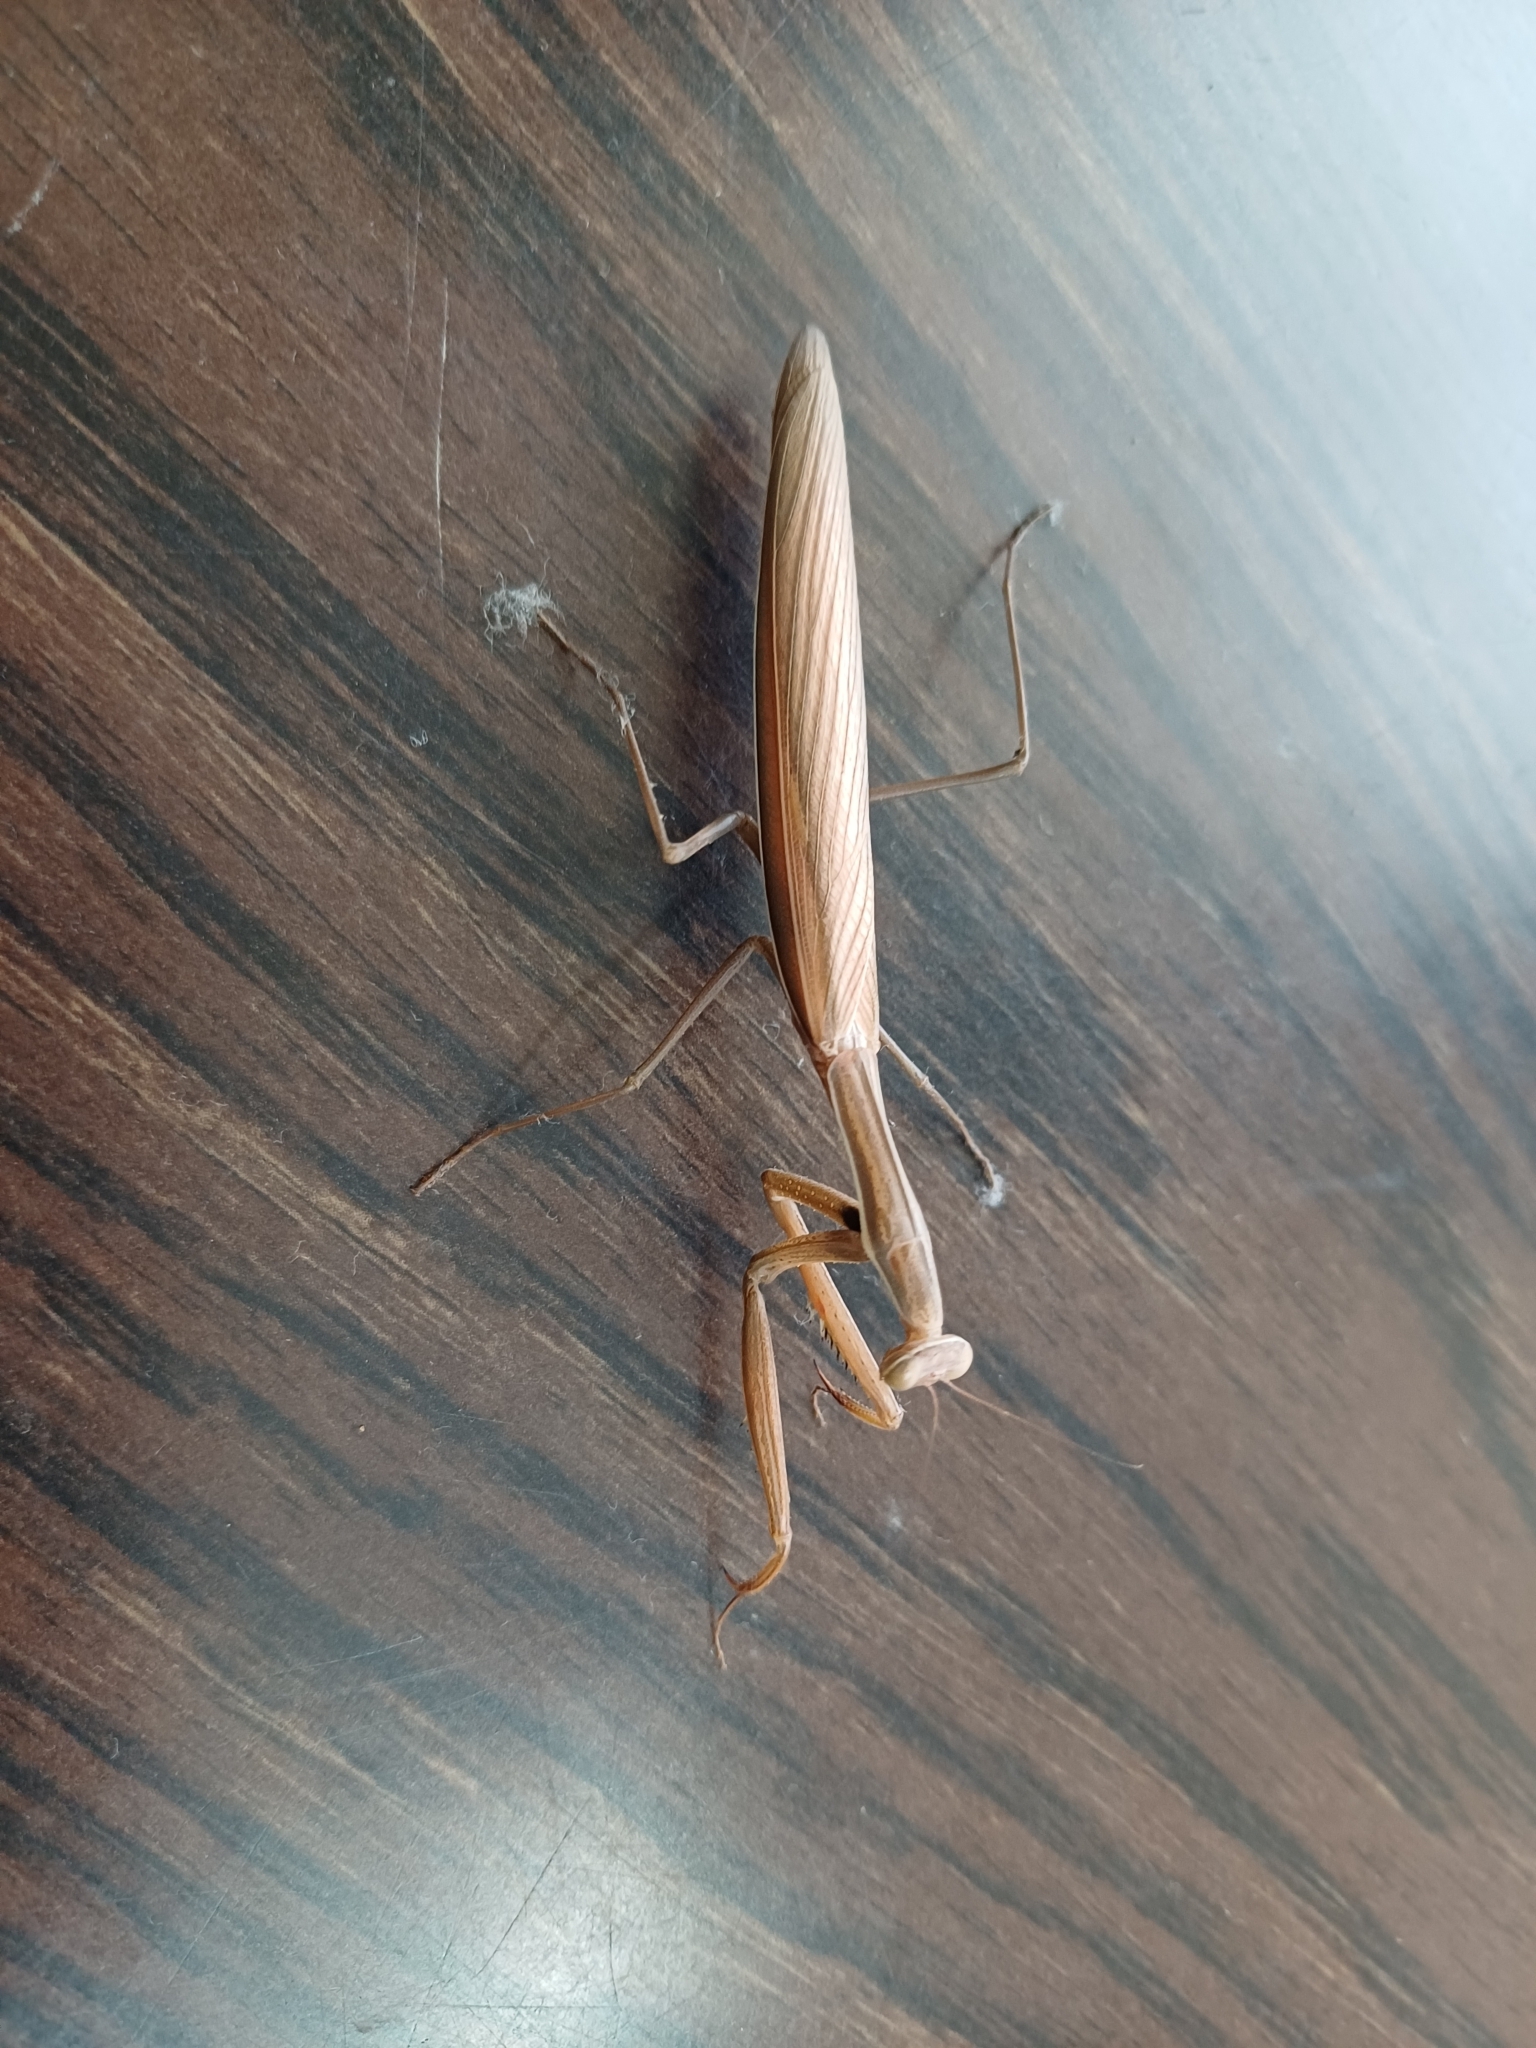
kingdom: Animalia
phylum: Arthropoda
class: Insecta
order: Mantodea
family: Mantidae
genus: Mantis
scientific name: Mantis religiosa
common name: Praying mantis
